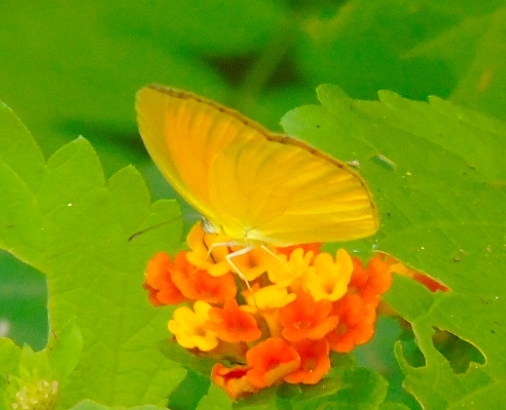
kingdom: Animalia
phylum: Arthropoda
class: Insecta
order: Lepidoptera
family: Pieridae
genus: Pyrisitia
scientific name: Pyrisitia proterpia
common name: Tailed orange
